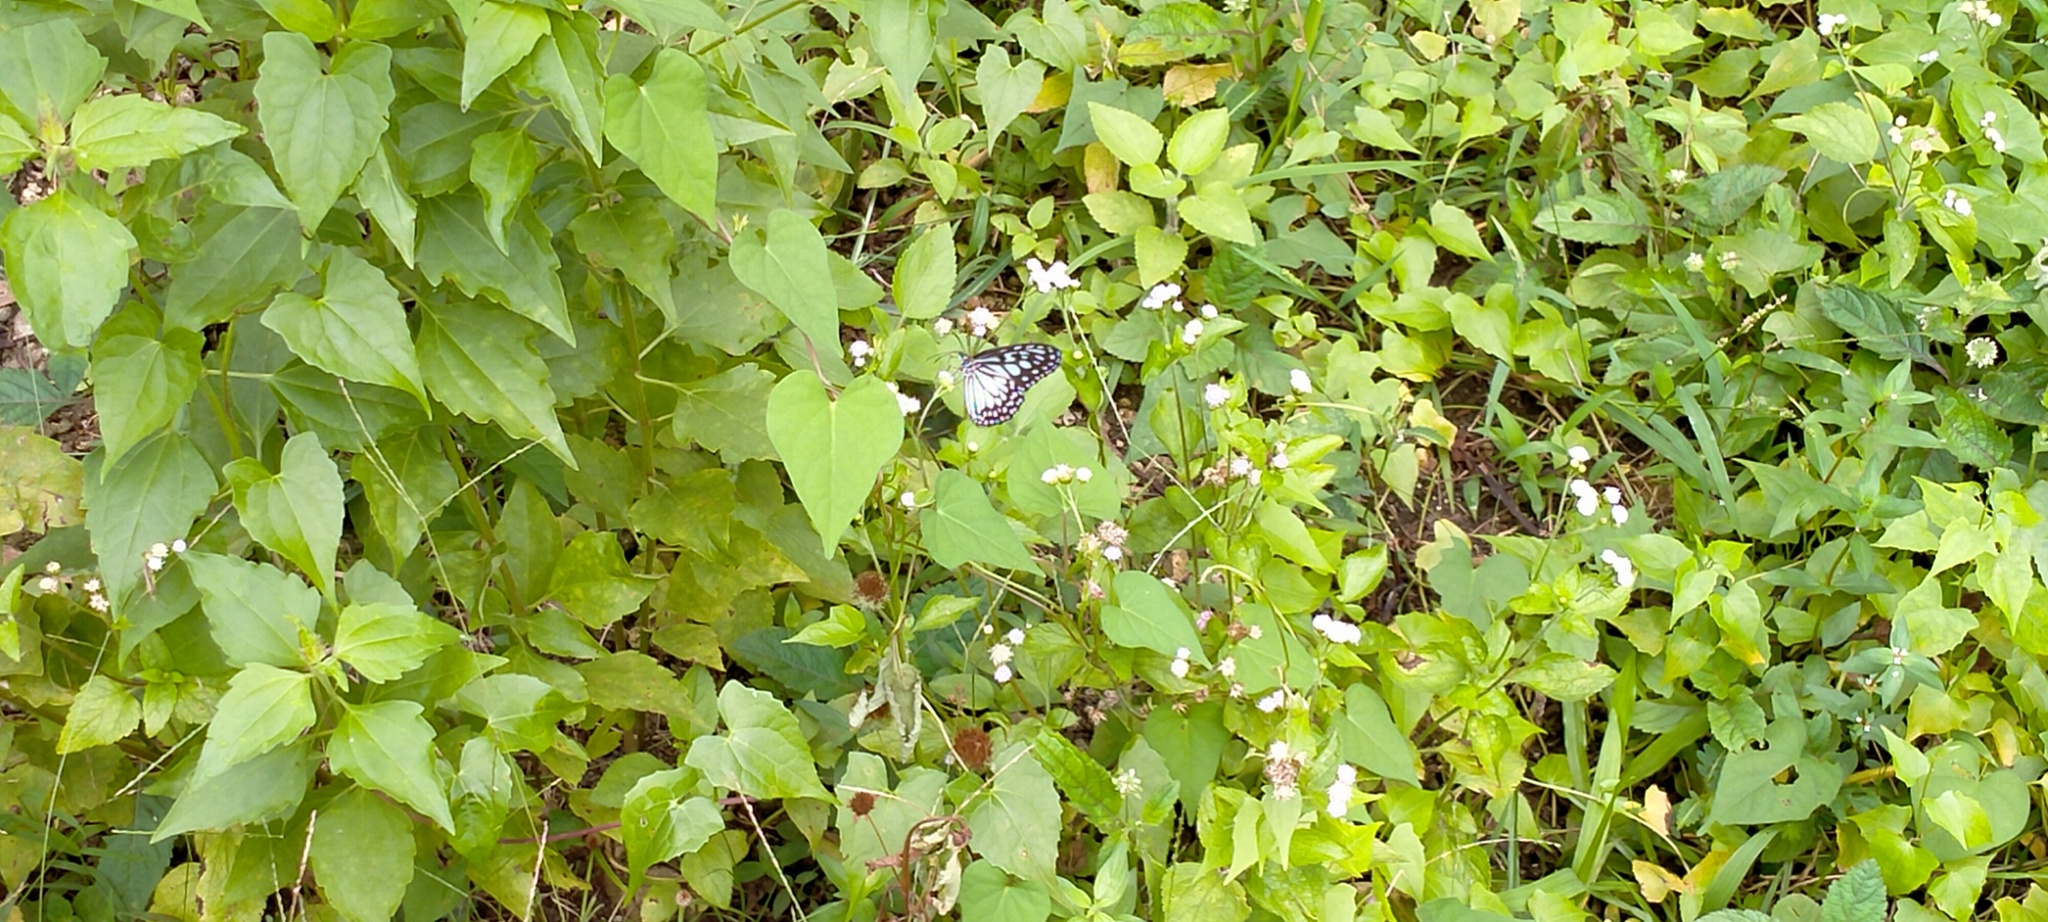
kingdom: Animalia
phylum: Arthropoda
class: Insecta
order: Lepidoptera
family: Nymphalidae
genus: Ideopsis
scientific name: Ideopsis juventa
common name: Grey glassy tiger
